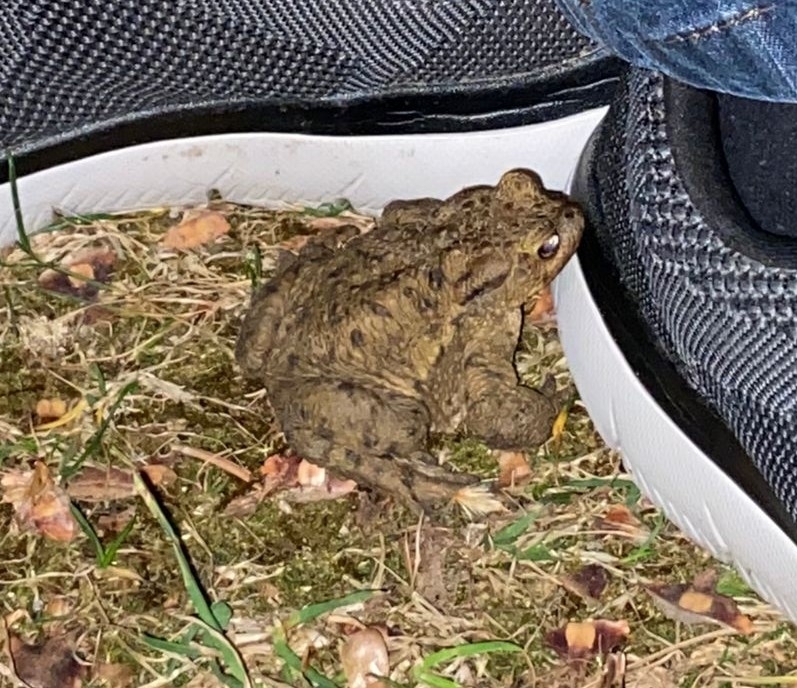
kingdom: Animalia
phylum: Chordata
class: Amphibia
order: Anura
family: Bufonidae
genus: Bufo
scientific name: Bufo bufo
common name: Common toad
